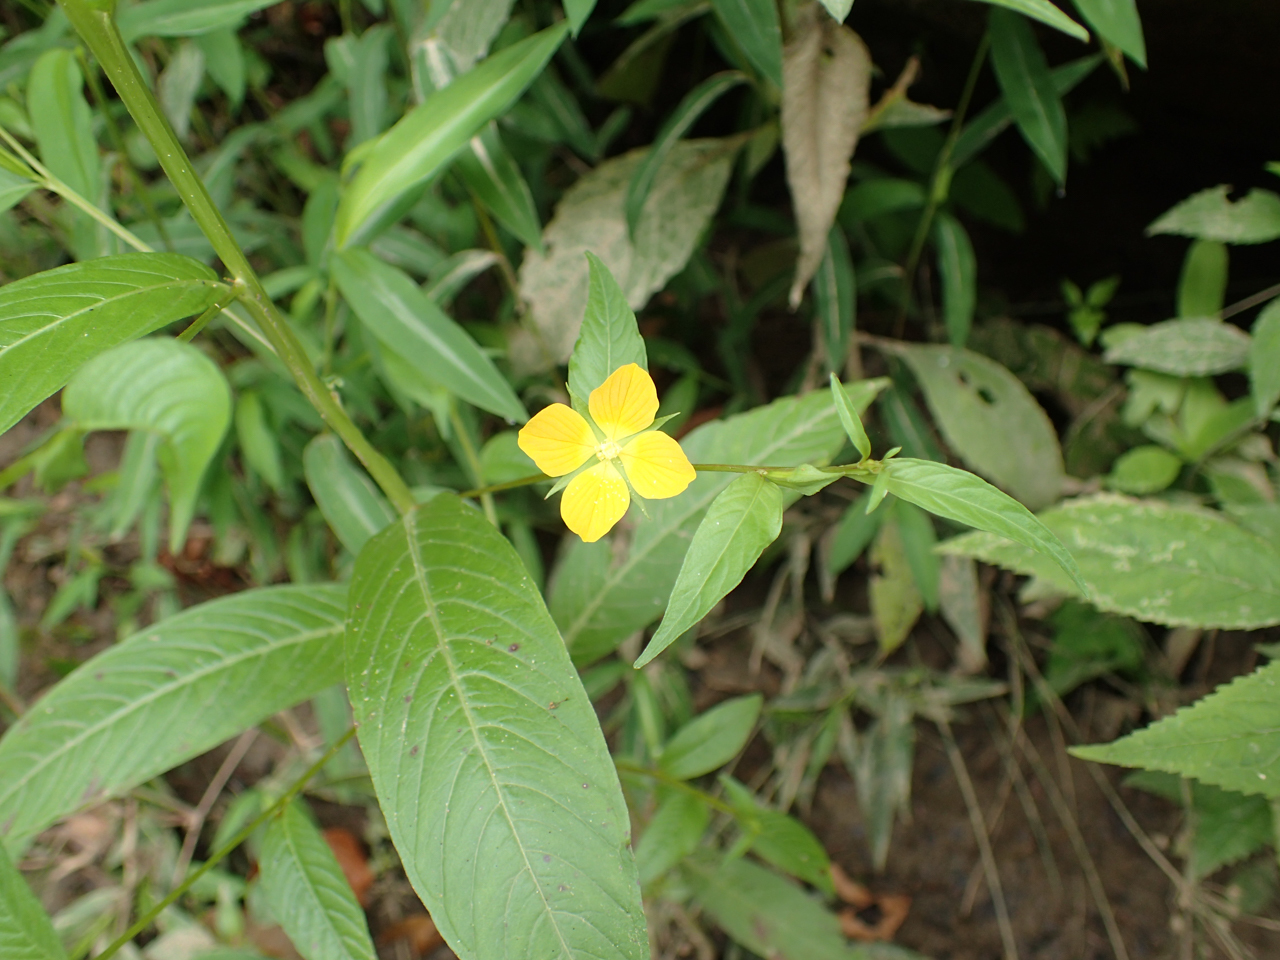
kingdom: Plantae
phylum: Tracheophyta
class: Magnoliopsida
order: Myrtales
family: Onagraceae
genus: Ludwigia
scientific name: Ludwigia alternifolia
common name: Rattlebox
